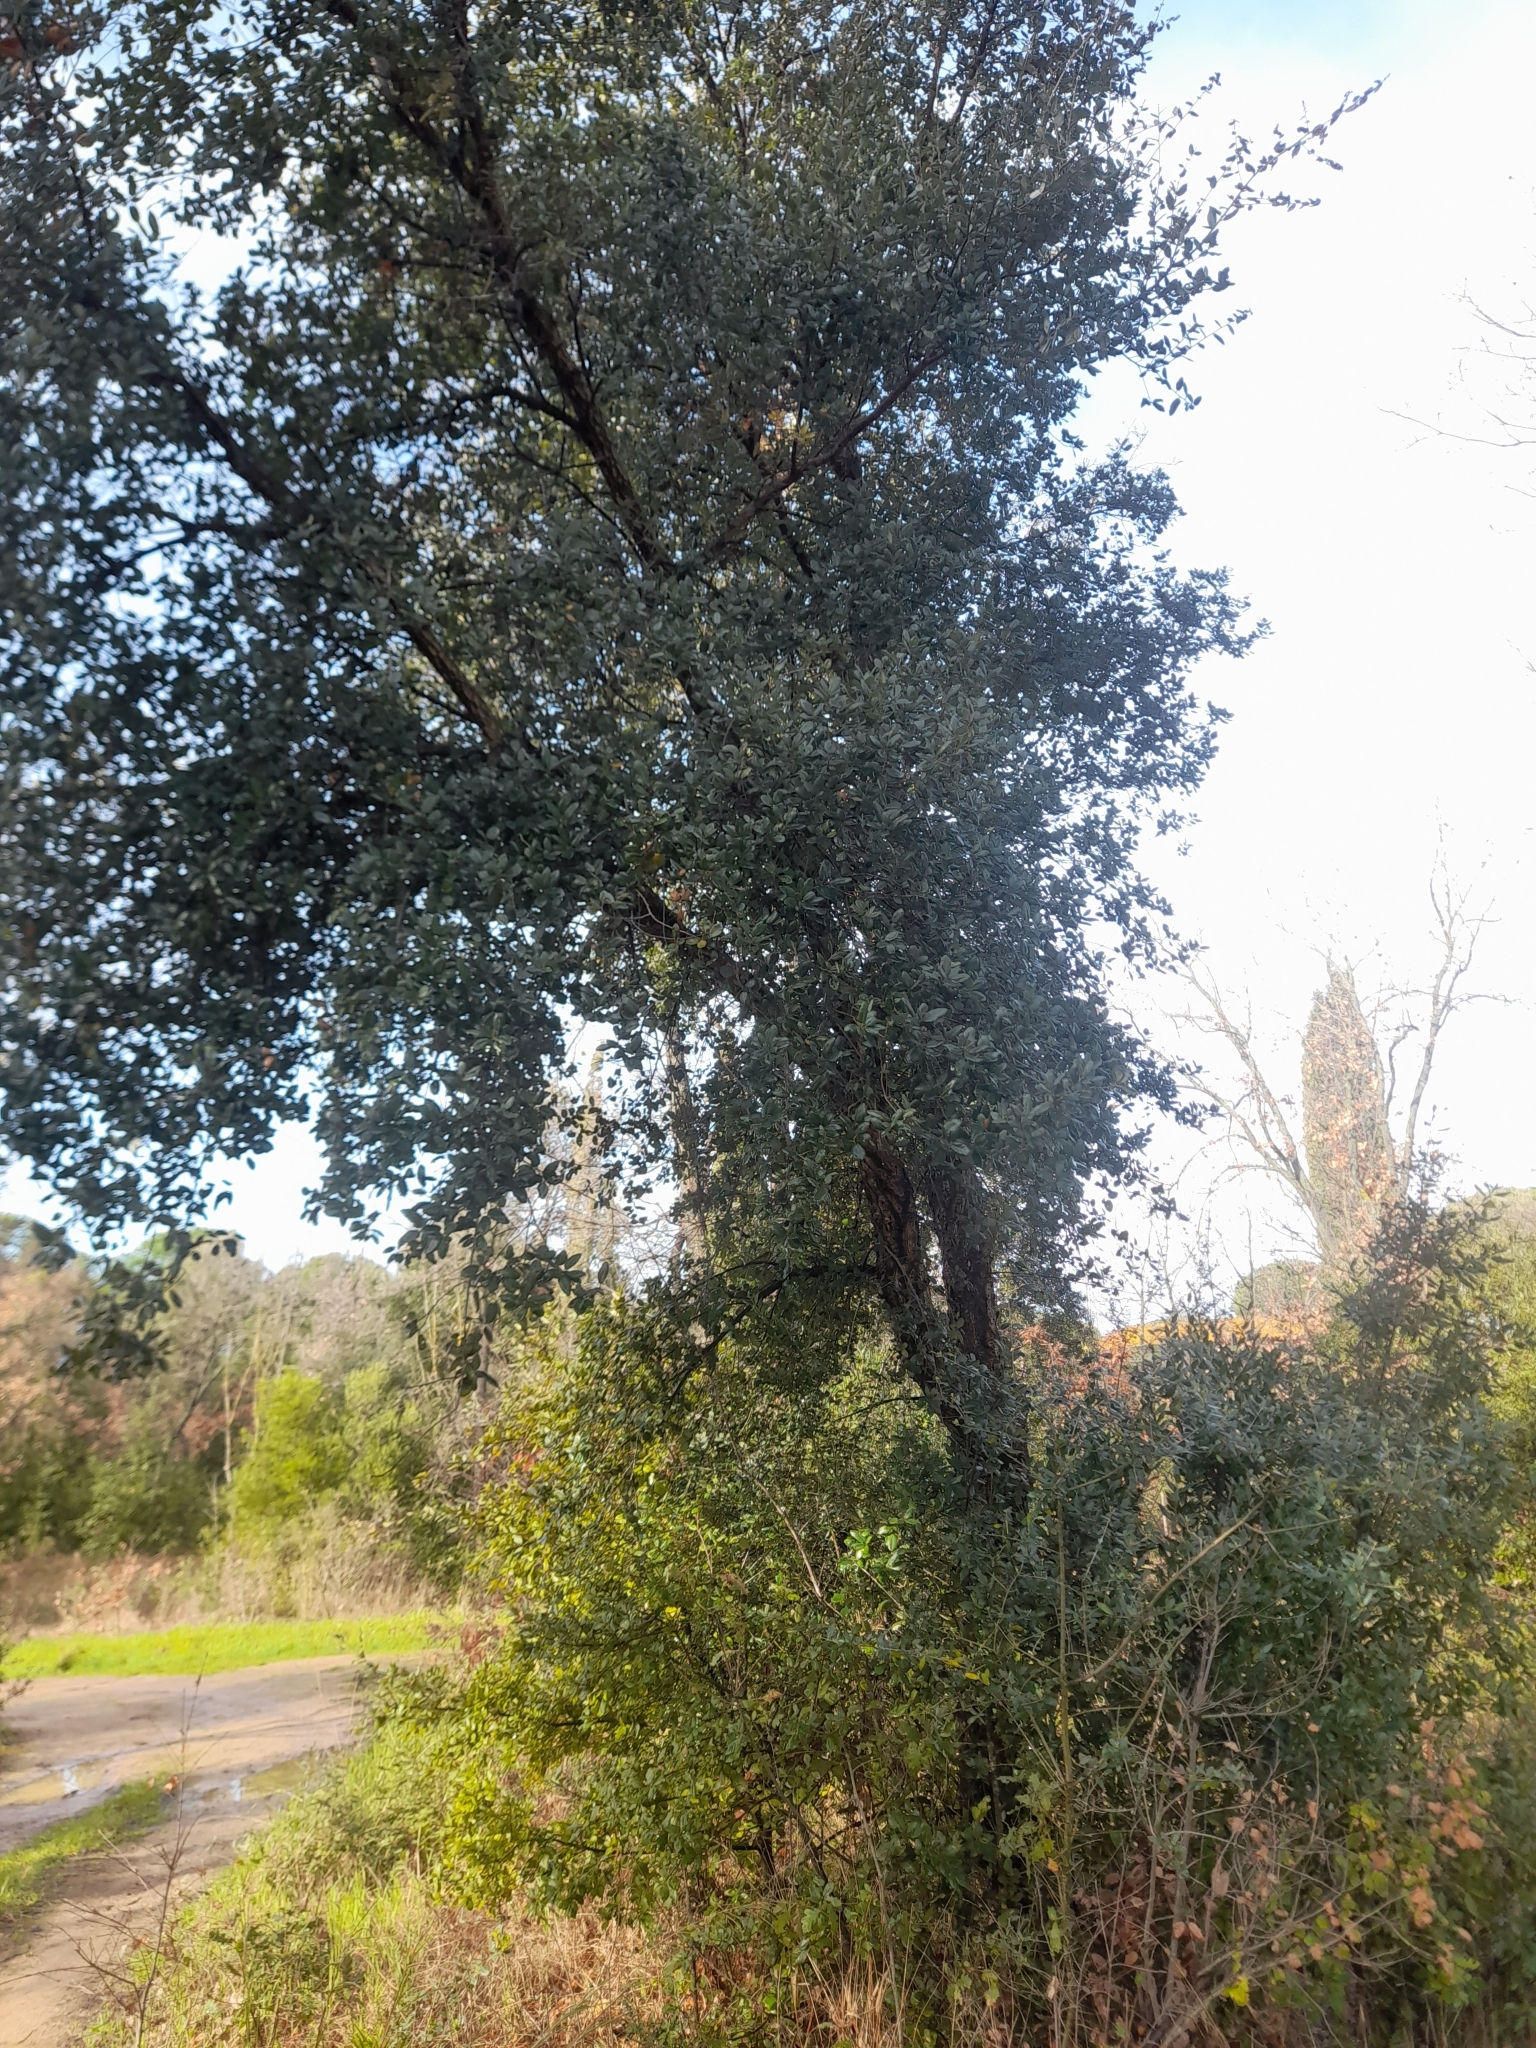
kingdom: Plantae
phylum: Tracheophyta
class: Magnoliopsida
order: Fagales
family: Fagaceae
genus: Quercus
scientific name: Quercus suber
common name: Cork oak
